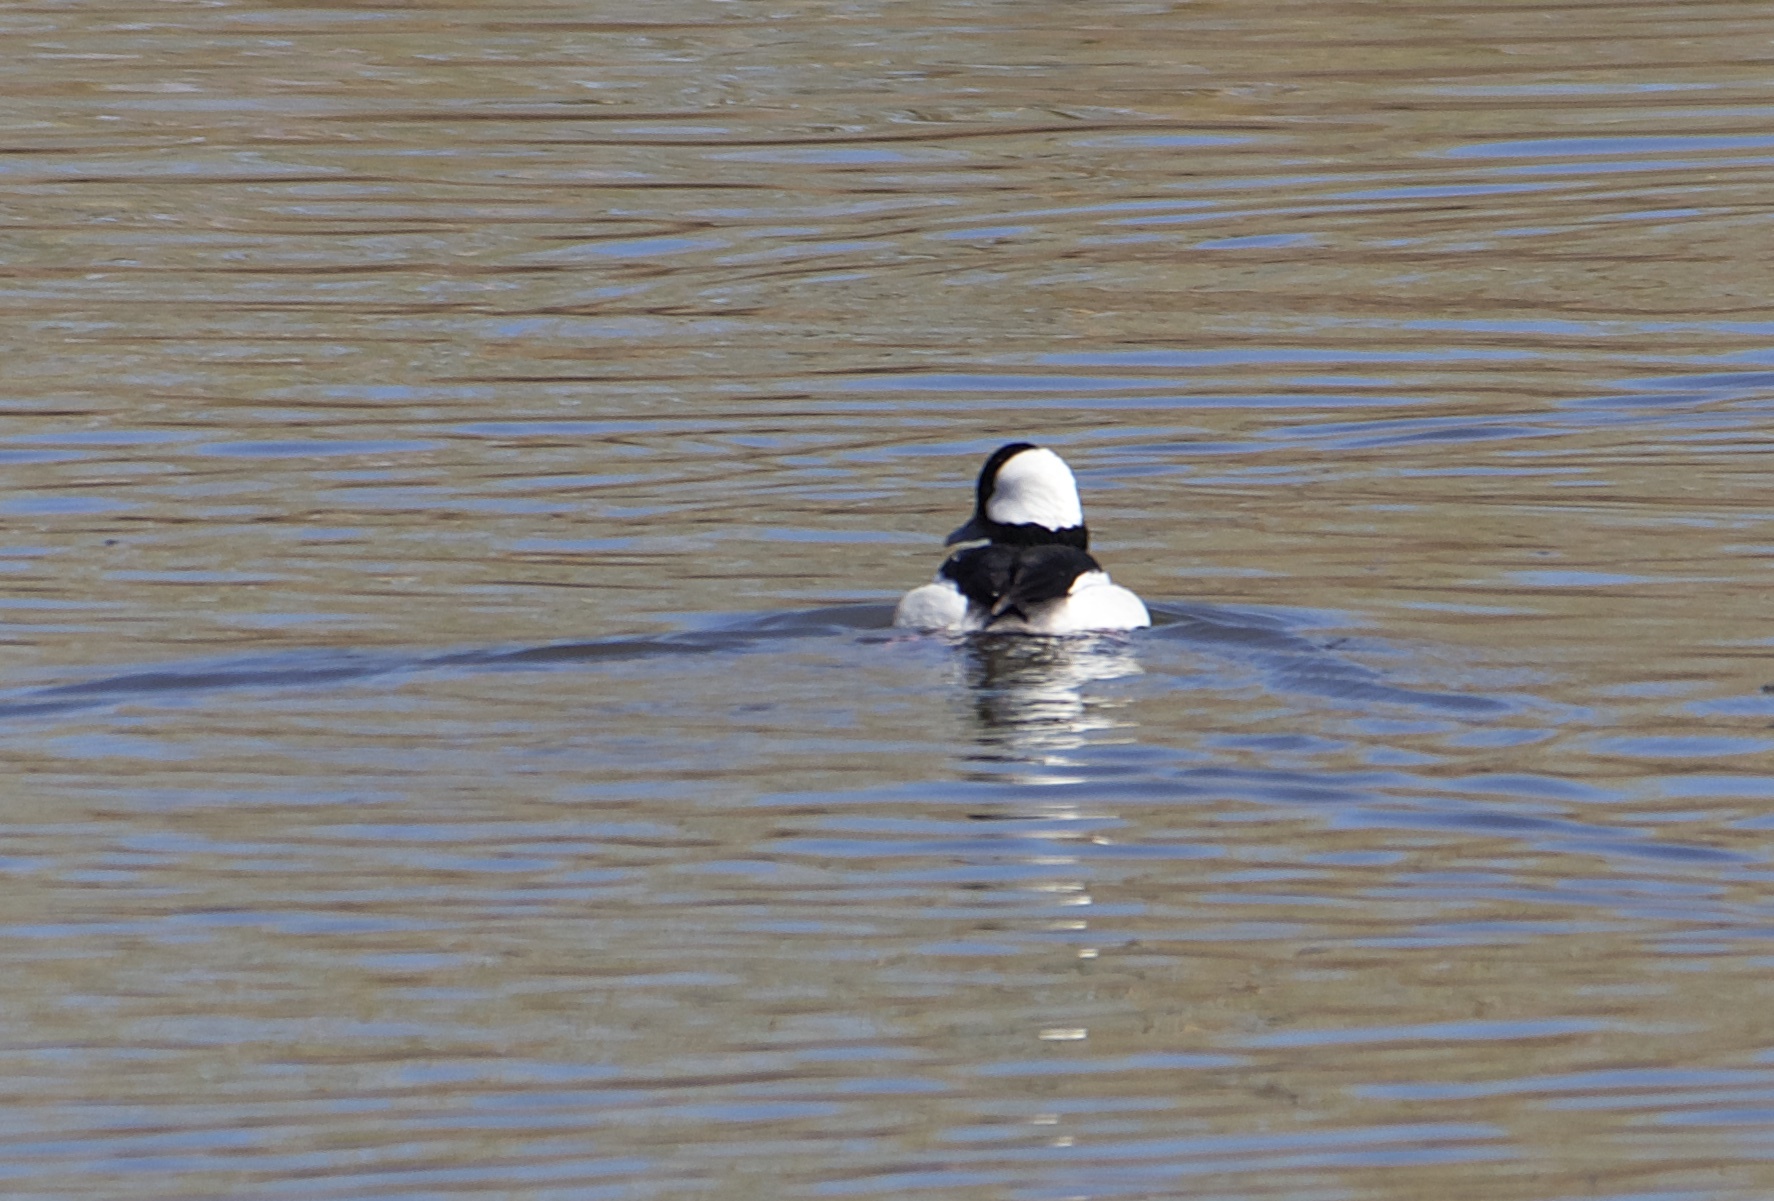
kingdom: Animalia
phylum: Chordata
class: Aves
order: Anseriformes
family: Anatidae
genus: Bucephala
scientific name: Bucephala albeola
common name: Bufflehead
